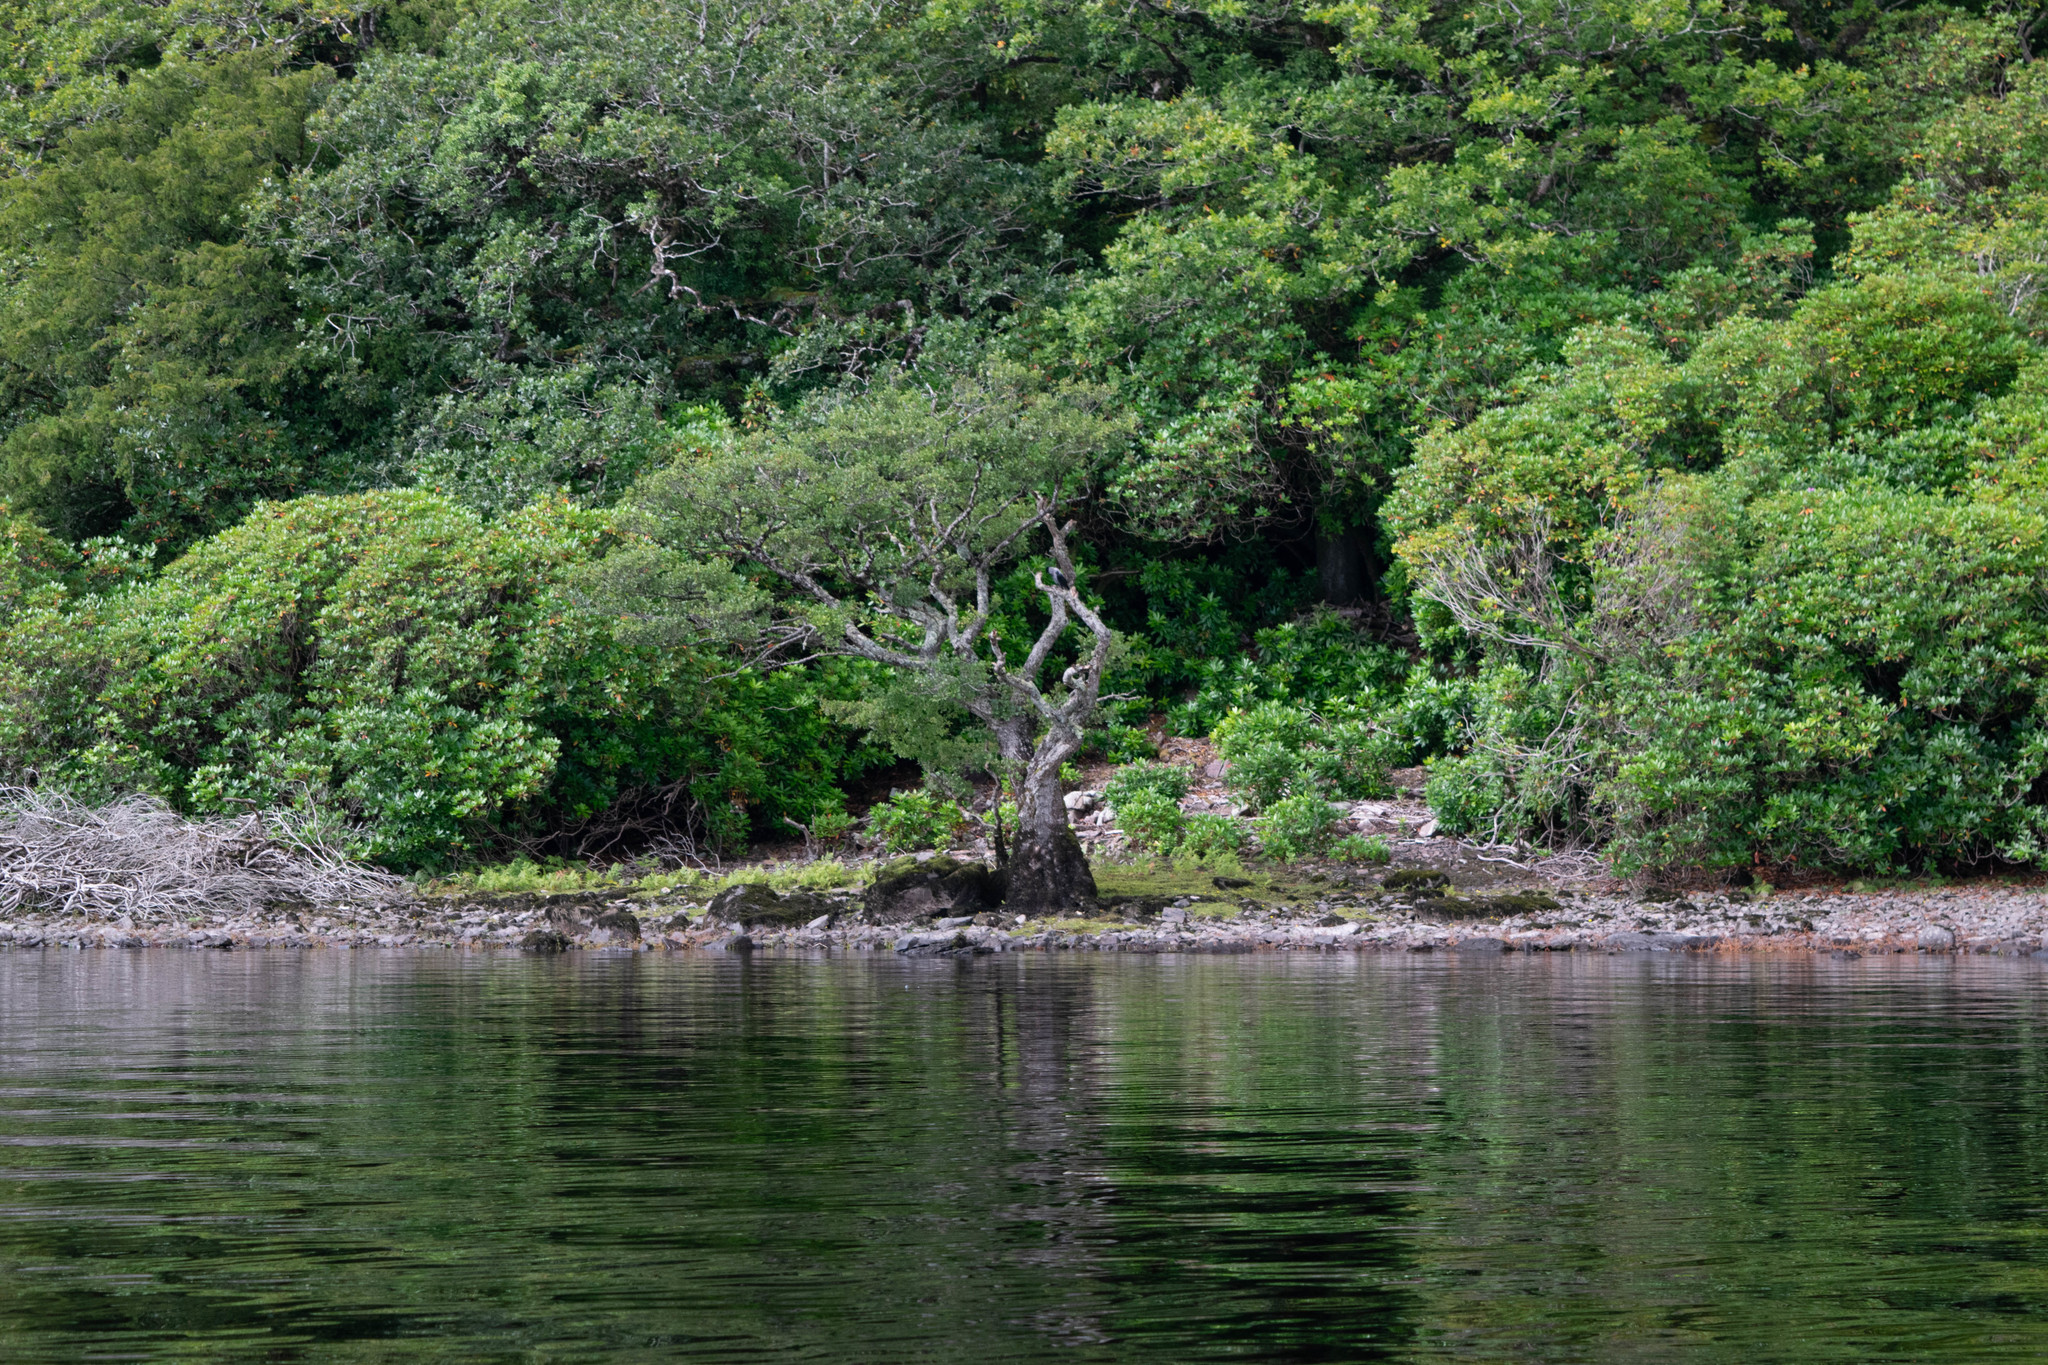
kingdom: Animalia
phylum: Chordata
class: Aves
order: Passeriformes
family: Corvidae
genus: Corvus
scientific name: Corvus cornix
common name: Hooded crow
